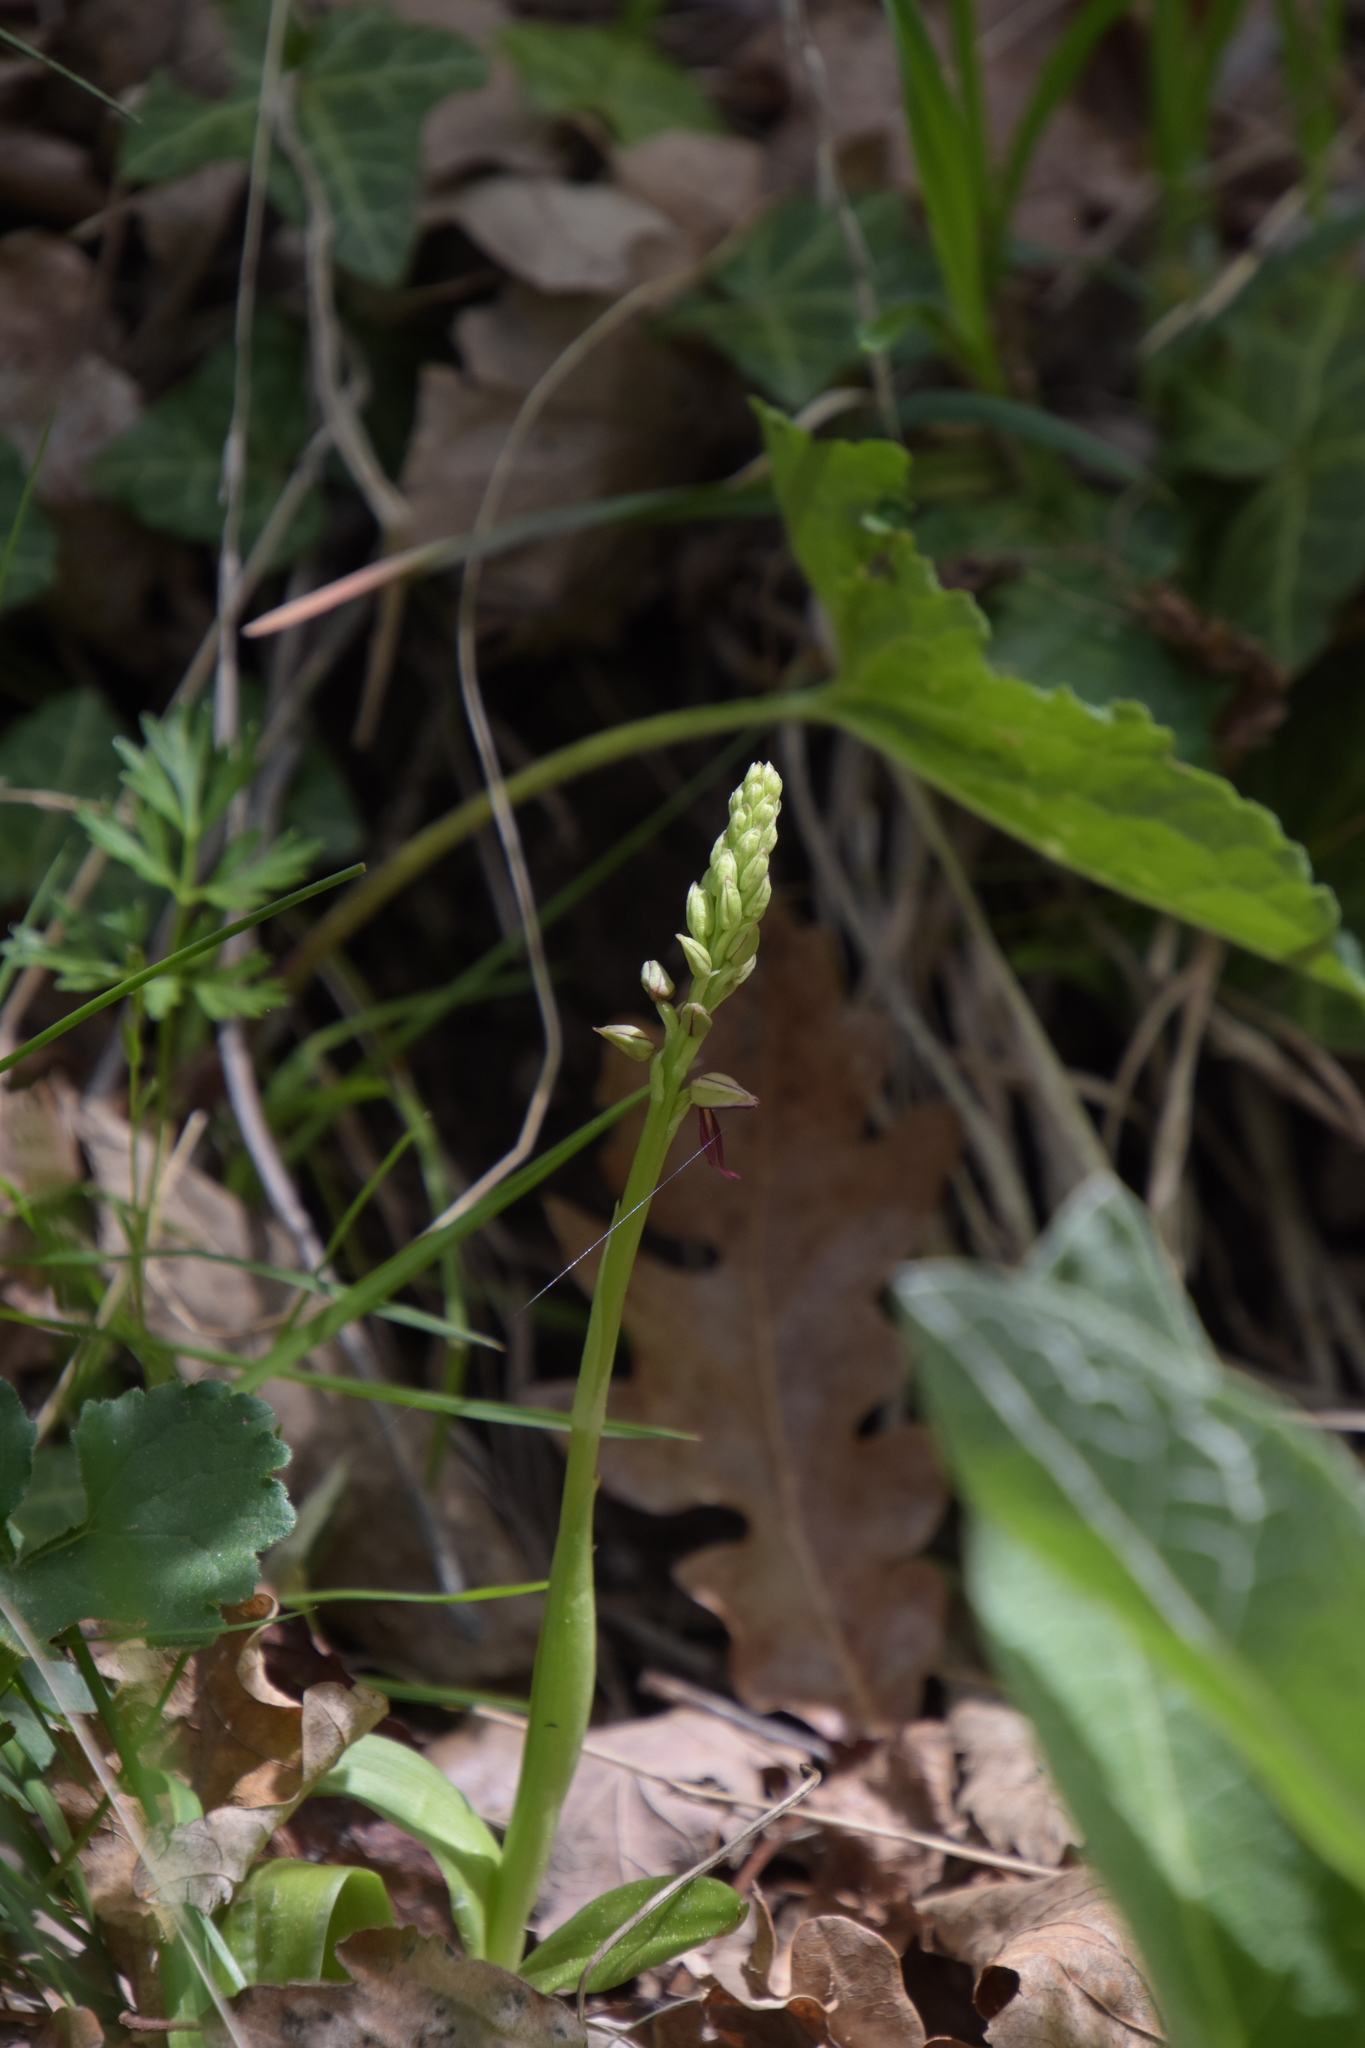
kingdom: Plantae
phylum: Tracheophyta
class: Liliopsida
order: Asparagales
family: Orchidaceae
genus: Orchis
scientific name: Orchis anthropophora
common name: Man orchid
